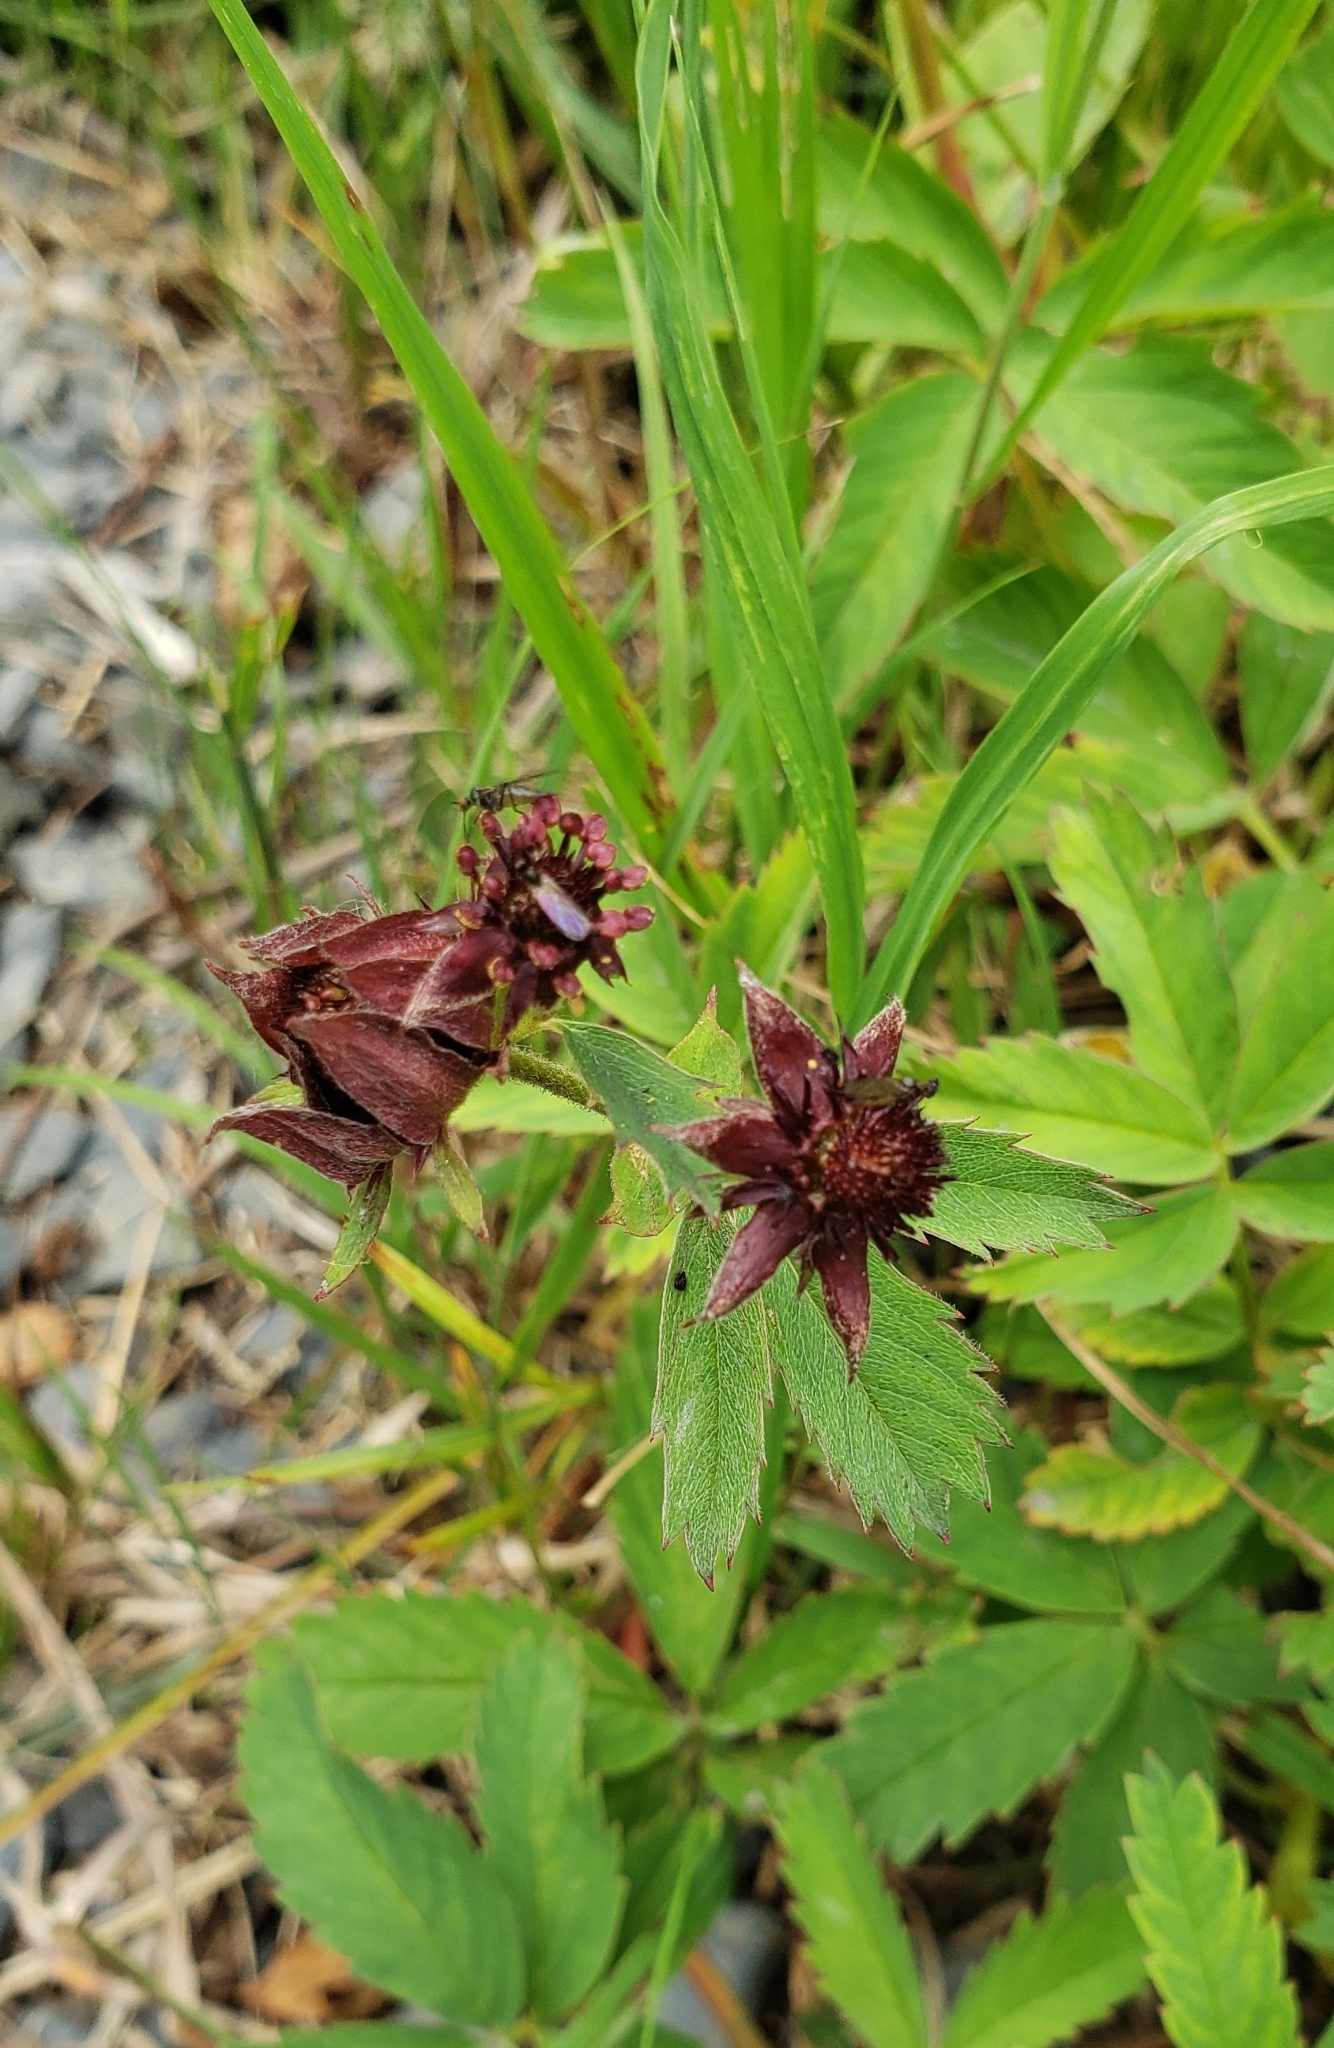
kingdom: Plantae
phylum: Tracheophyta
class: Magnoliopsida
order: Rosales
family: Rosaceae
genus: Comarum
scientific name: Comarum palustre
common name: Marsh cinquefoil
